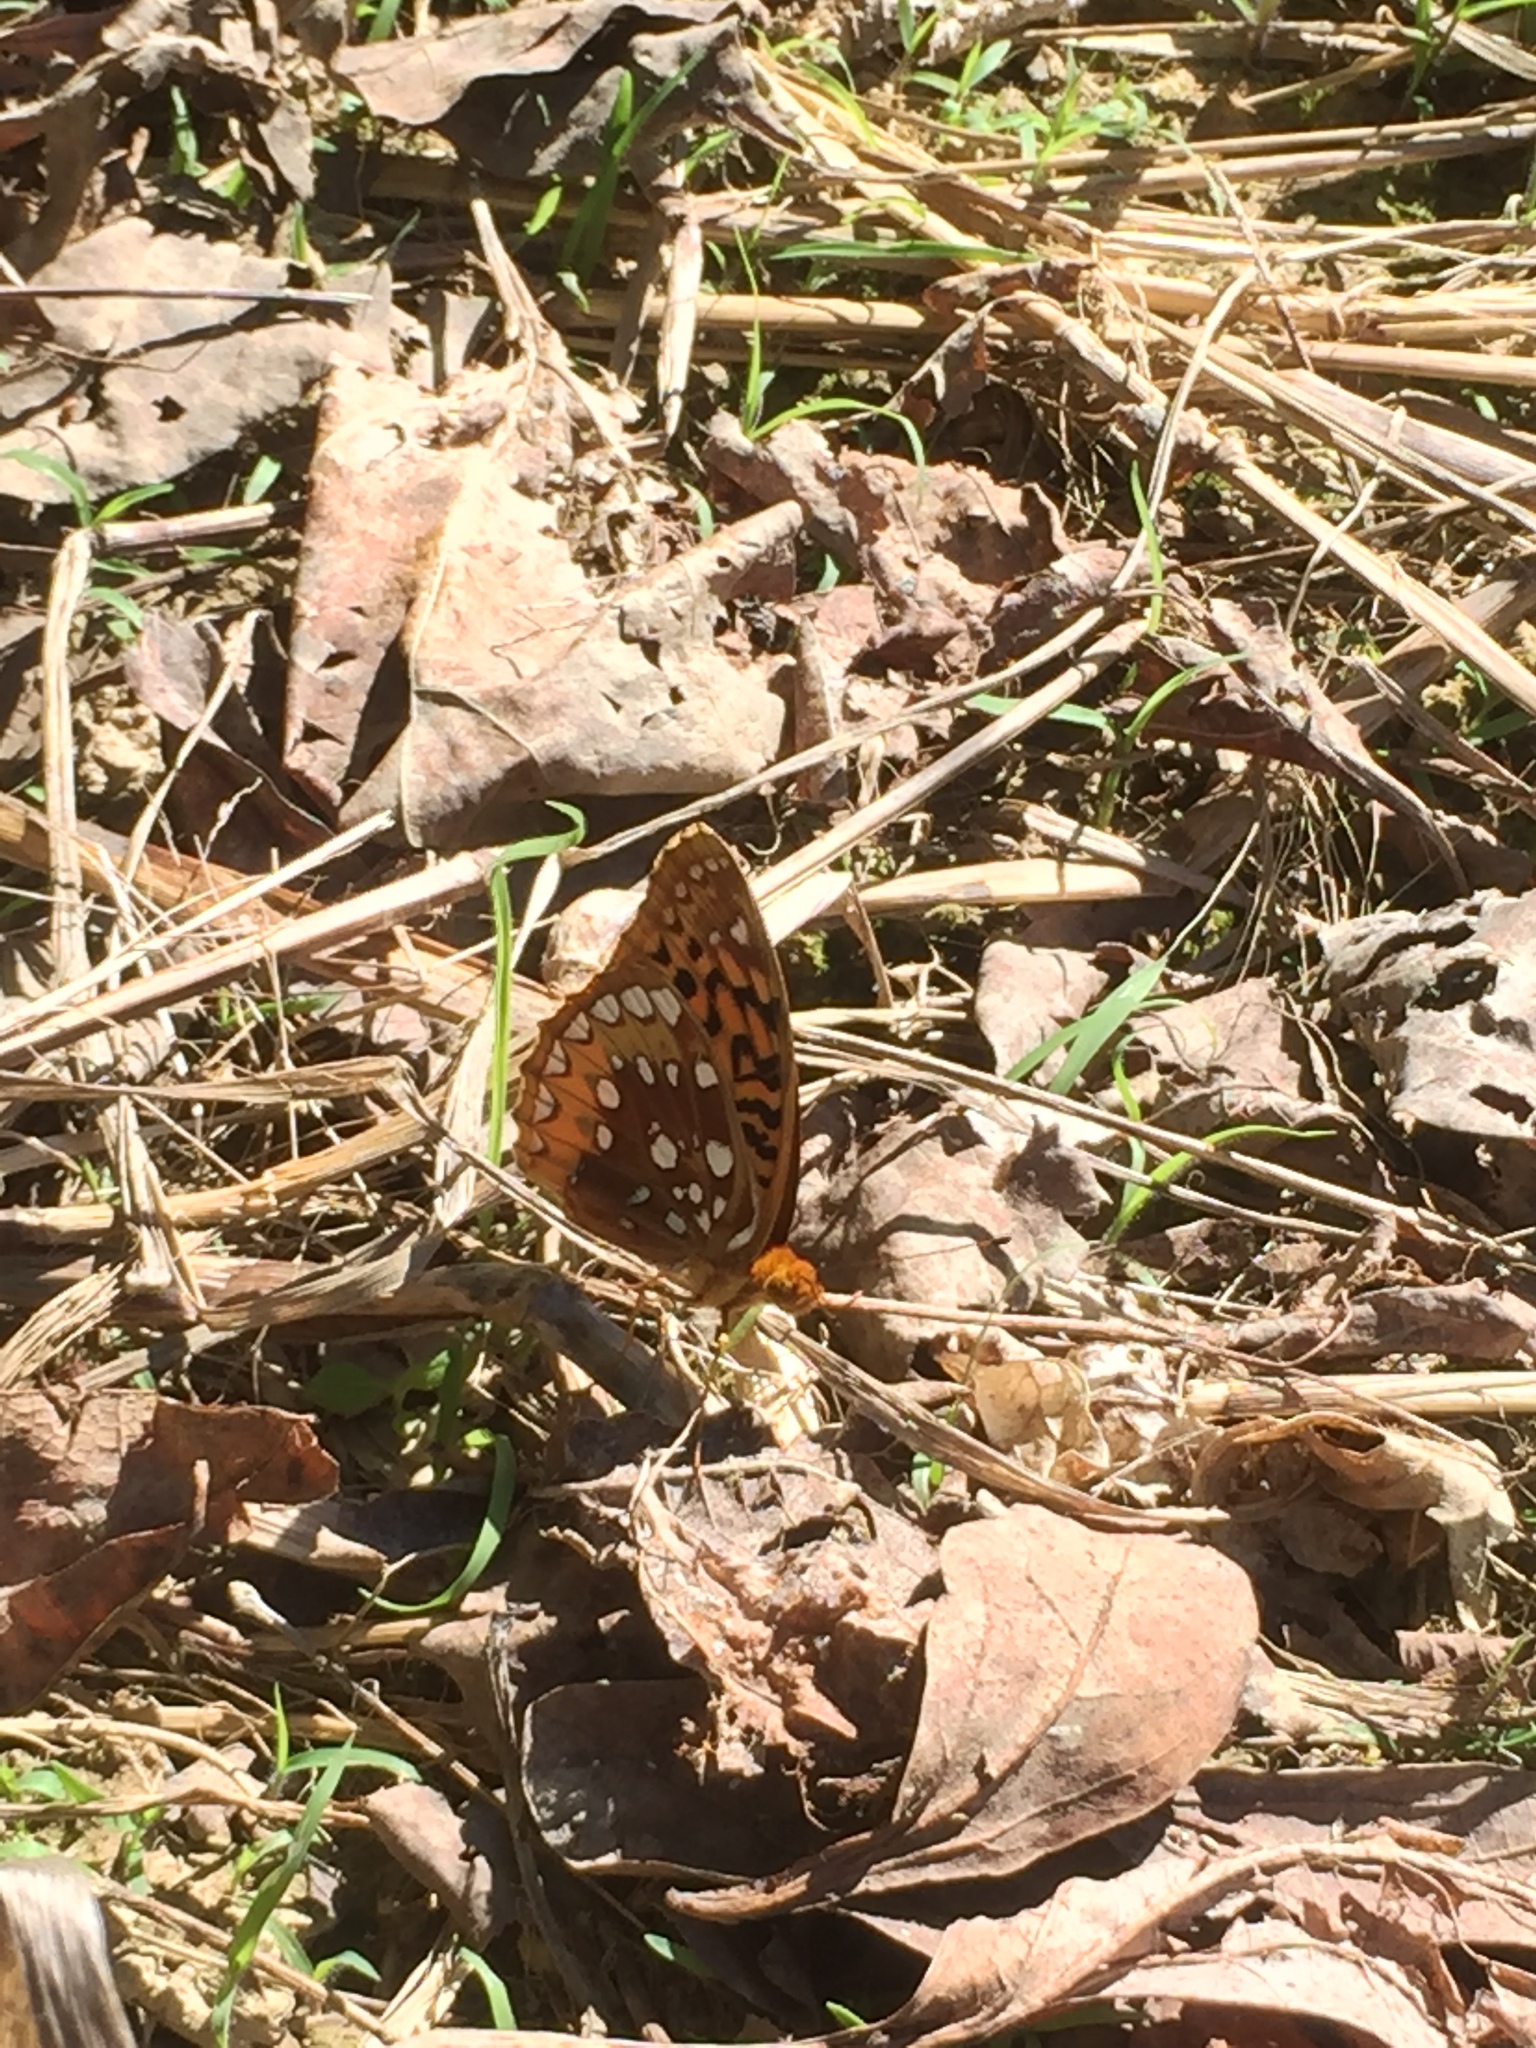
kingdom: Animalia
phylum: Arthropoda
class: Insecta
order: Lepidoptera
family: Nymphalidae
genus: Speyeria
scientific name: Speyeria cybele
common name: Great spangled fritillary
